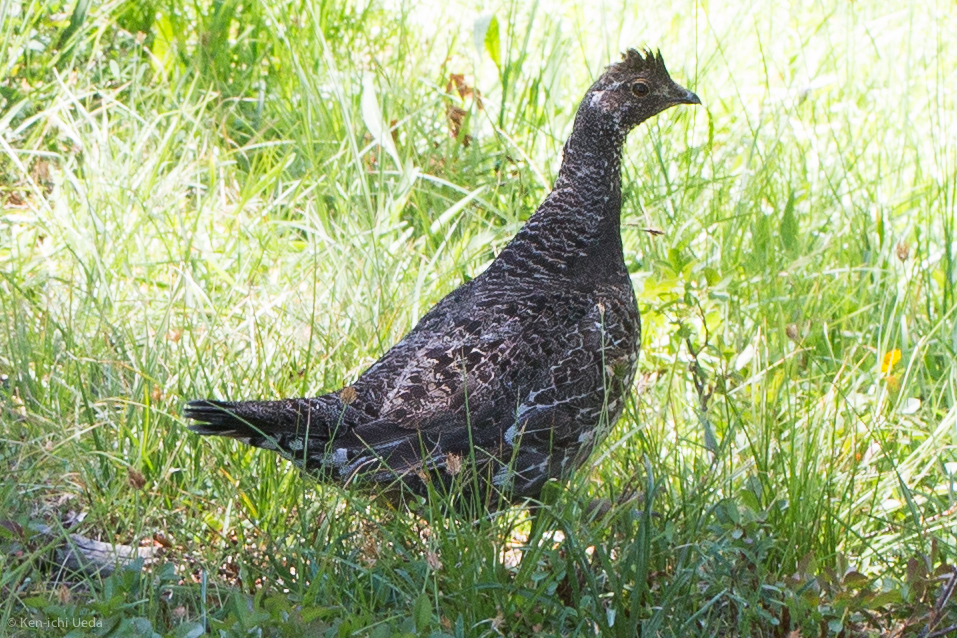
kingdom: Animalia
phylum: Chordata
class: Aves
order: Galliformes
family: Phasianidae
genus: Dendragapus
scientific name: Dendragapus fuliginosus
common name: Sooty grouse
